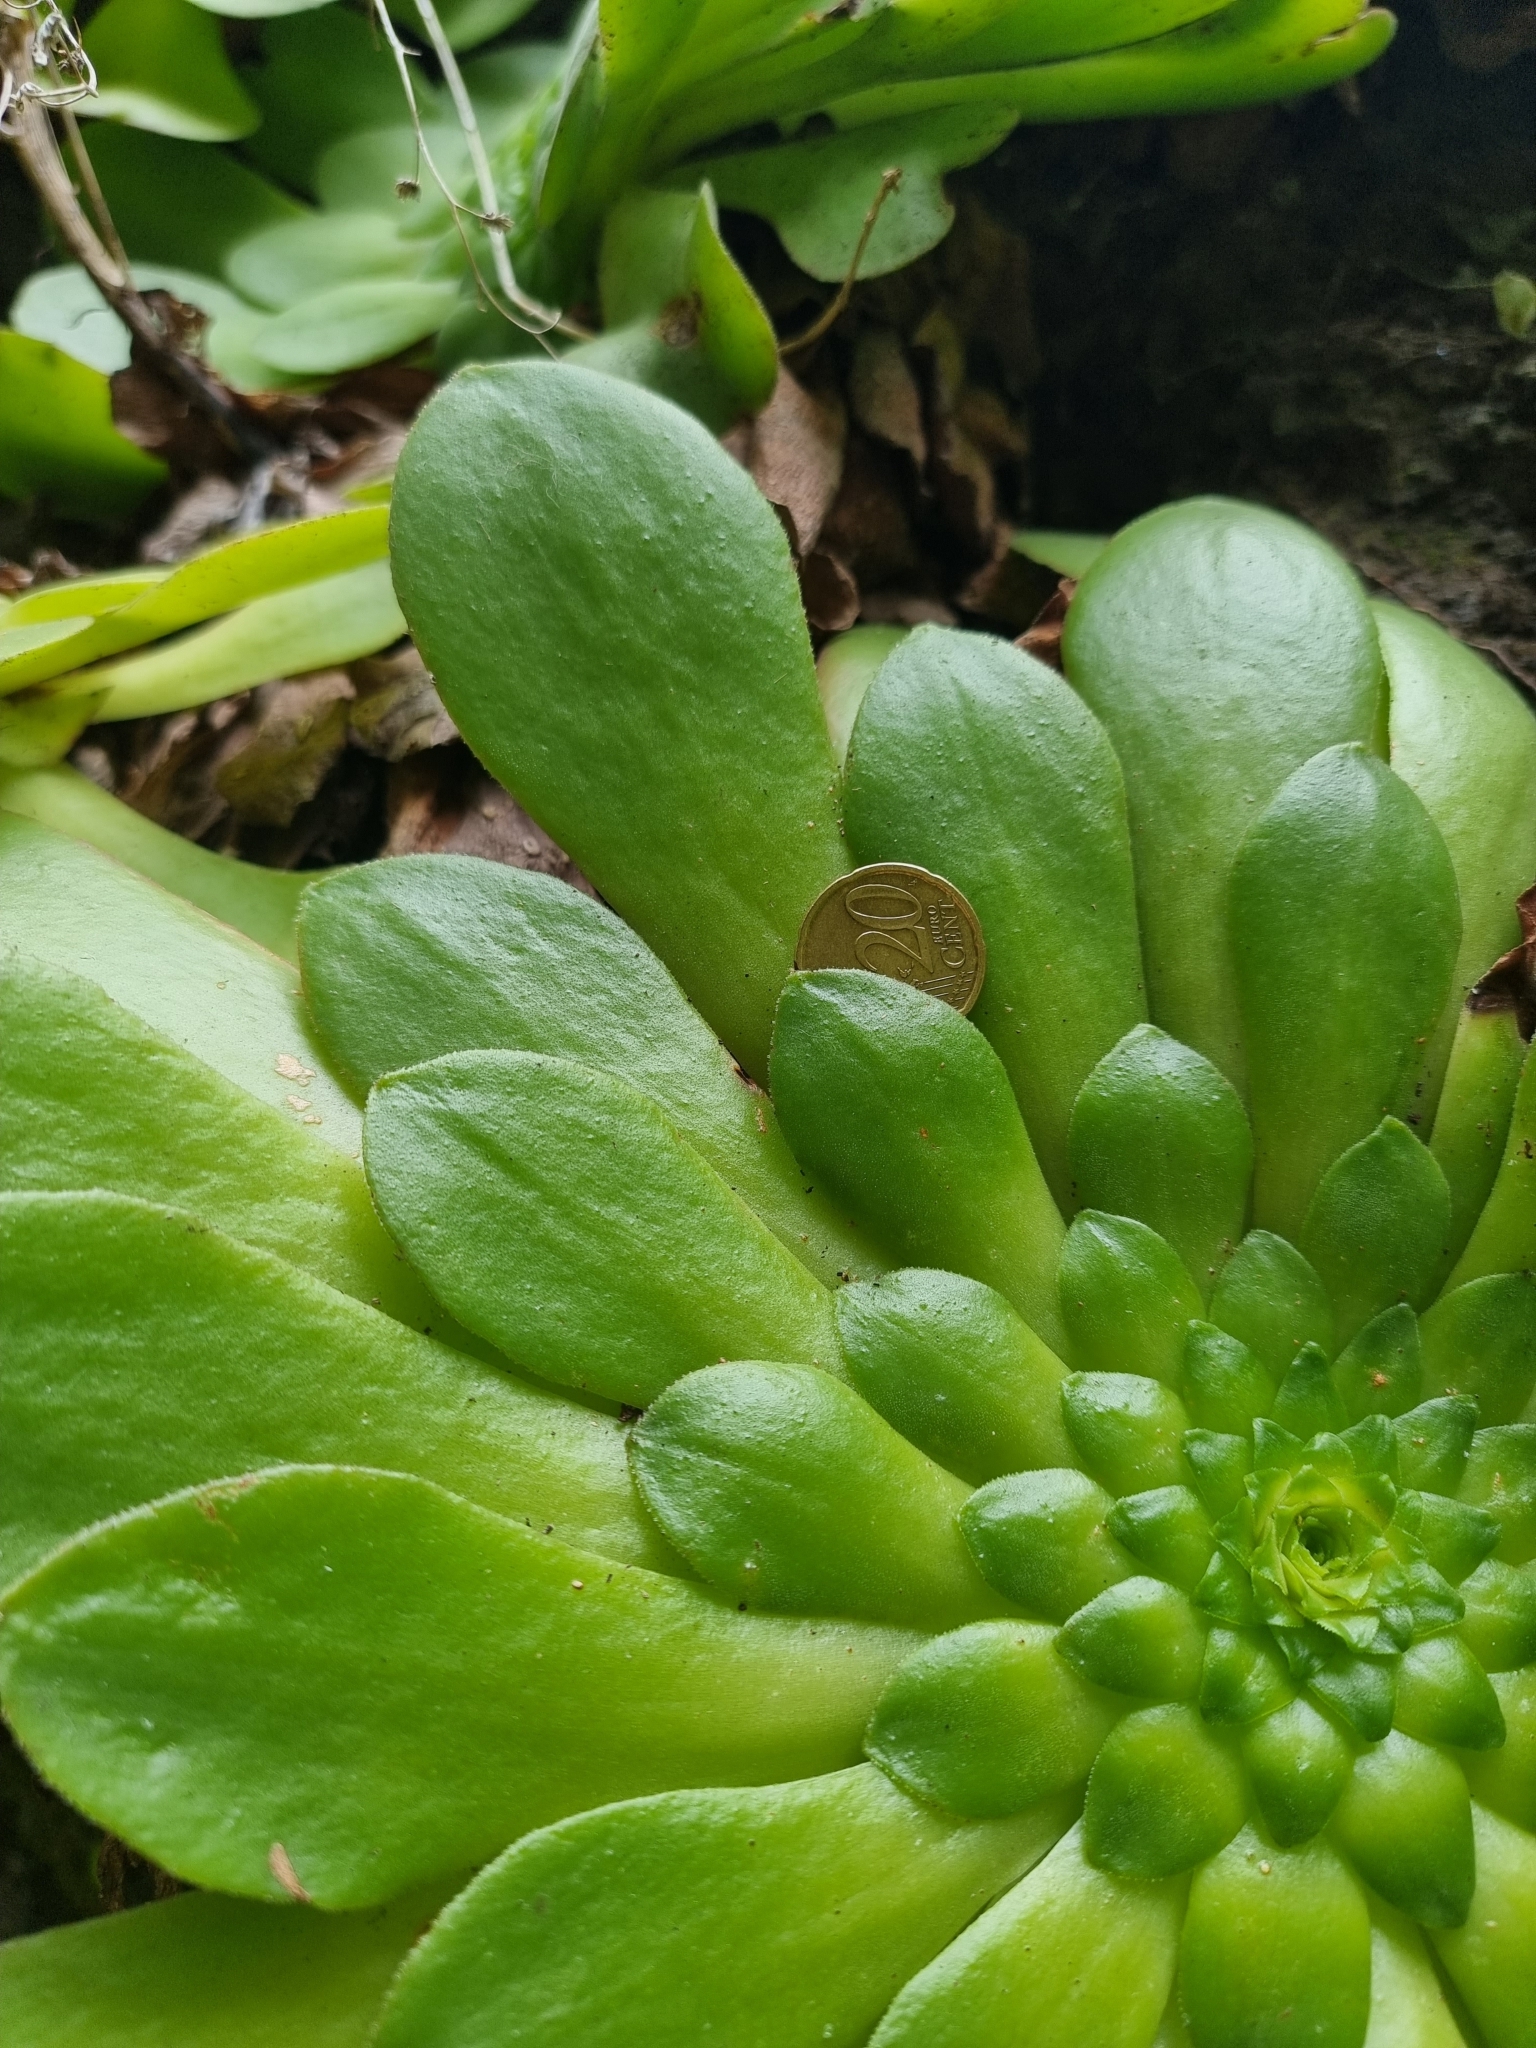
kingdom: Plantae
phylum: Tracheophyta
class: Magnoliopsida
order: Saxifragales
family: Crassulaceae
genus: Aeonium
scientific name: Aeonium glandulosum
